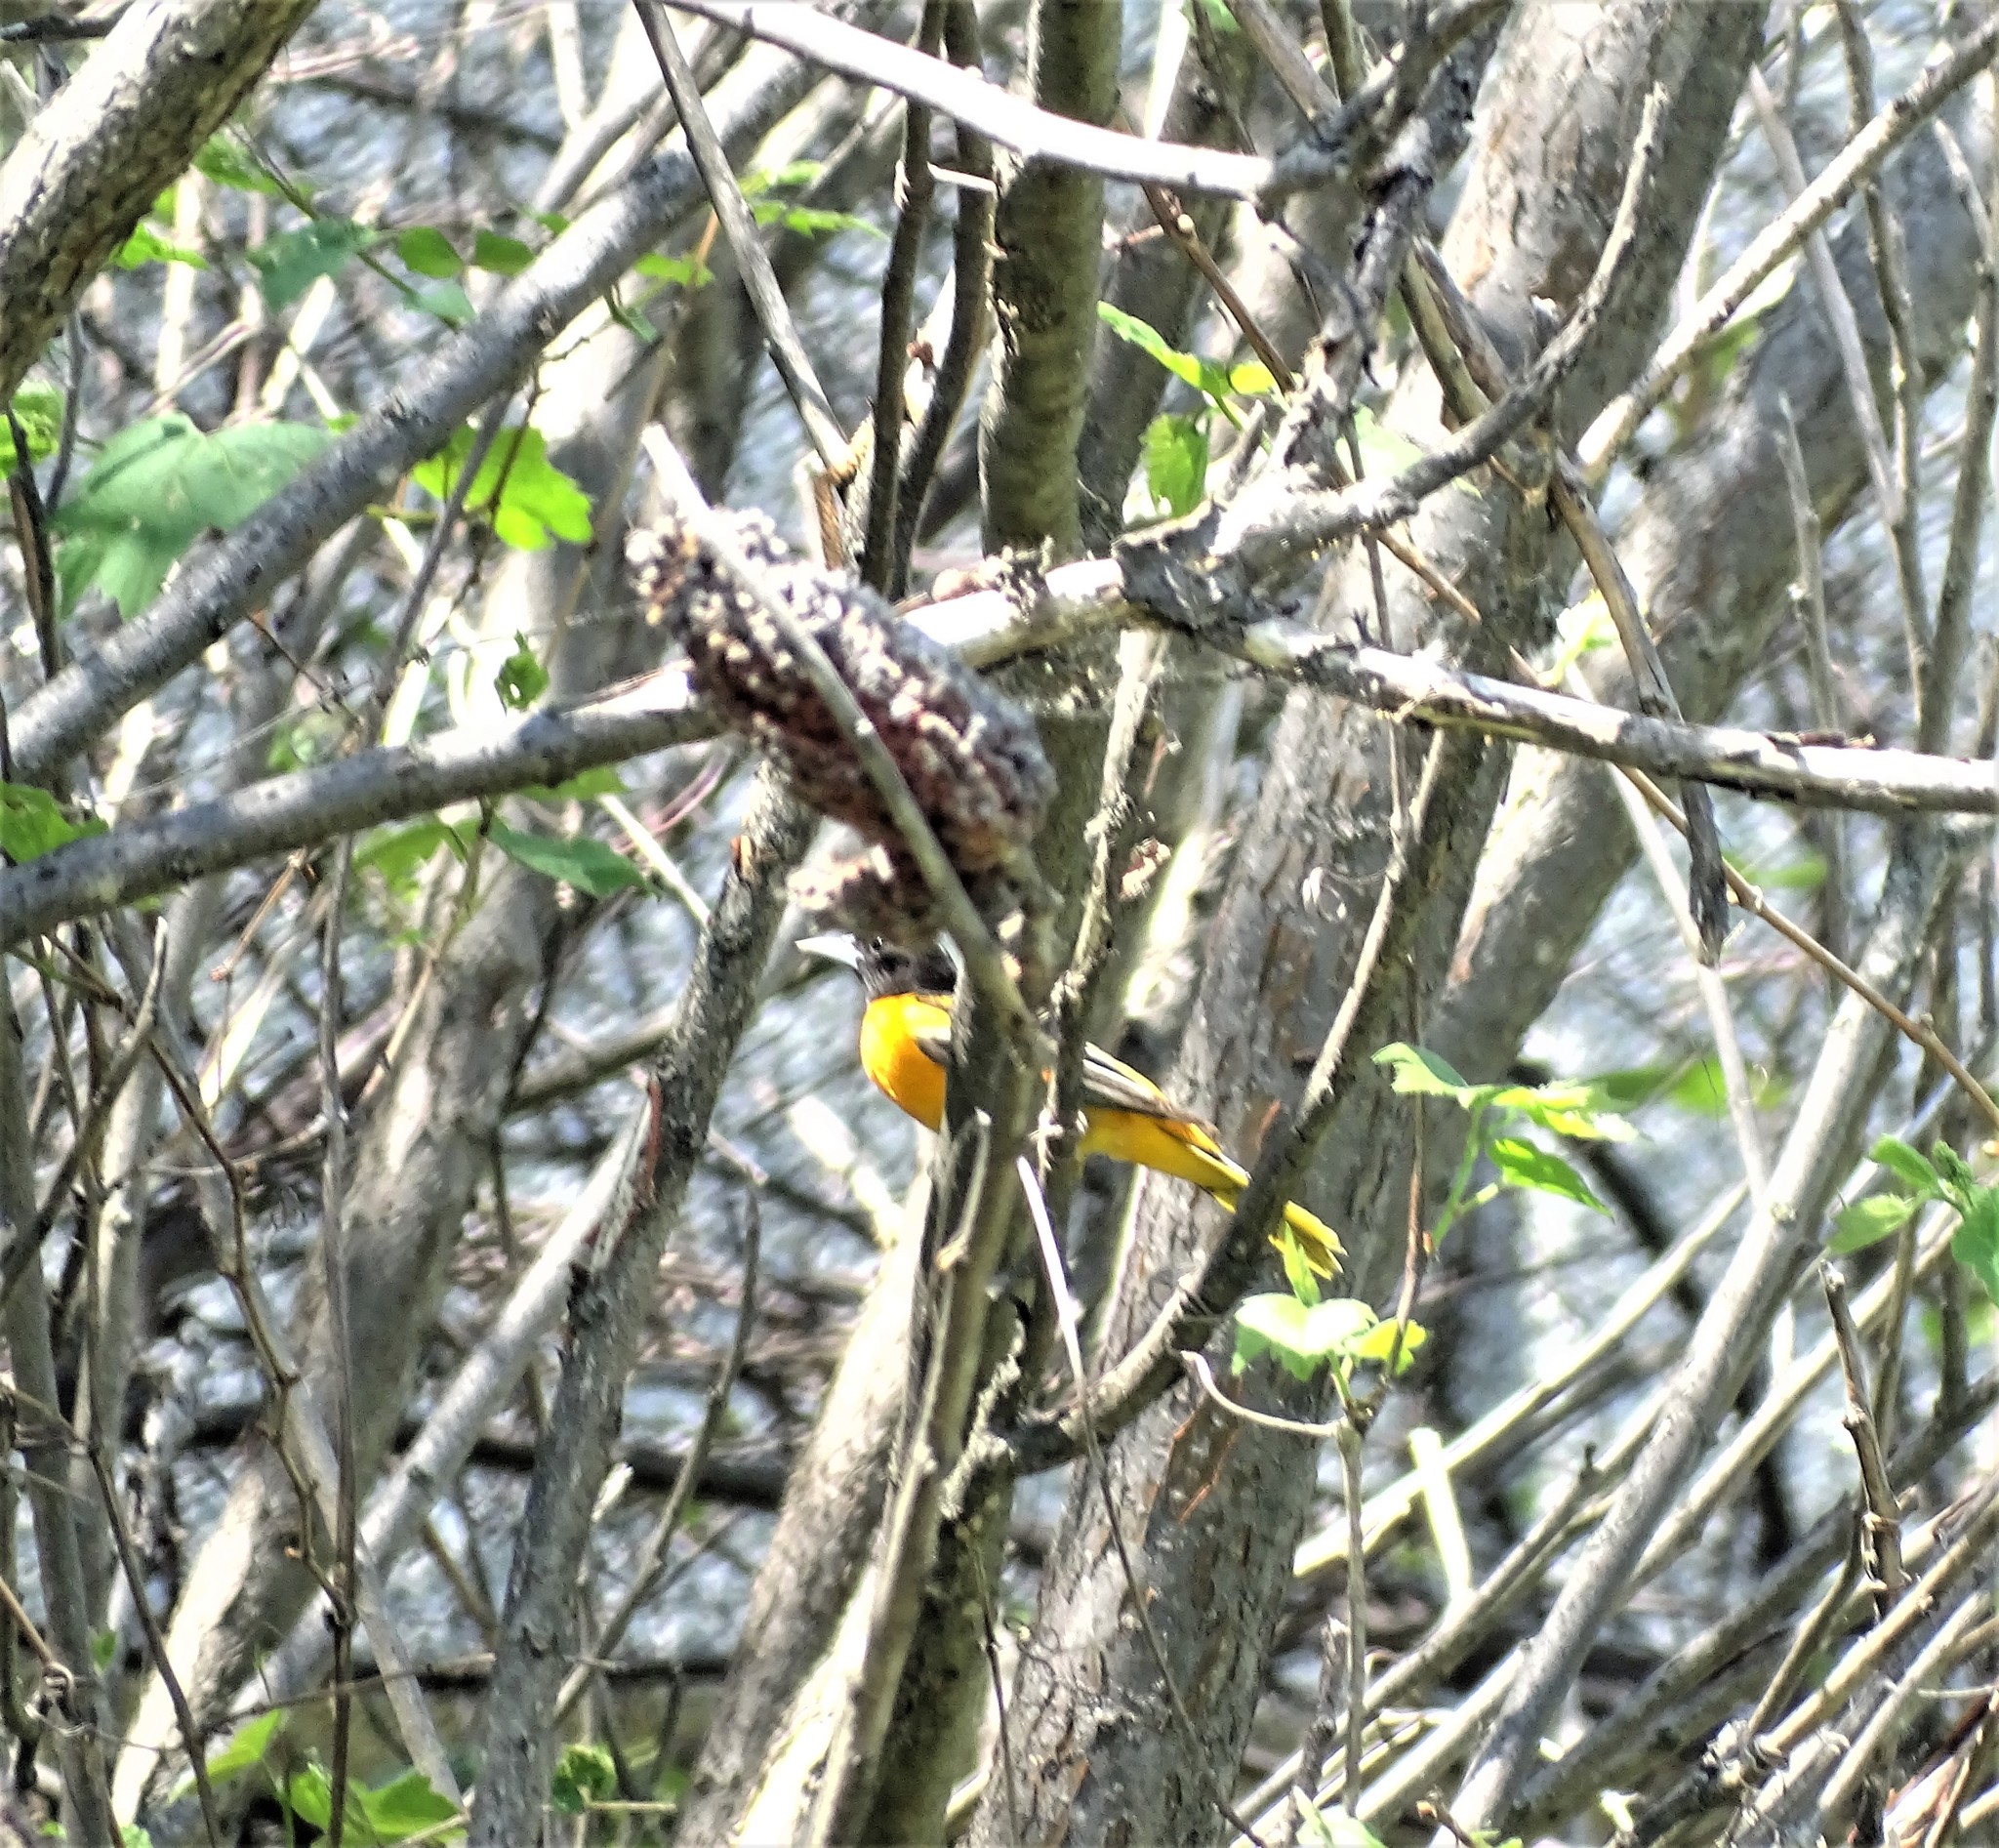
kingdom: Animalia
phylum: Chordata
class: Aves
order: Passeriformes
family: Icteridae
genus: Icterus
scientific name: Icterus galbula
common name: Baltimore oriole
